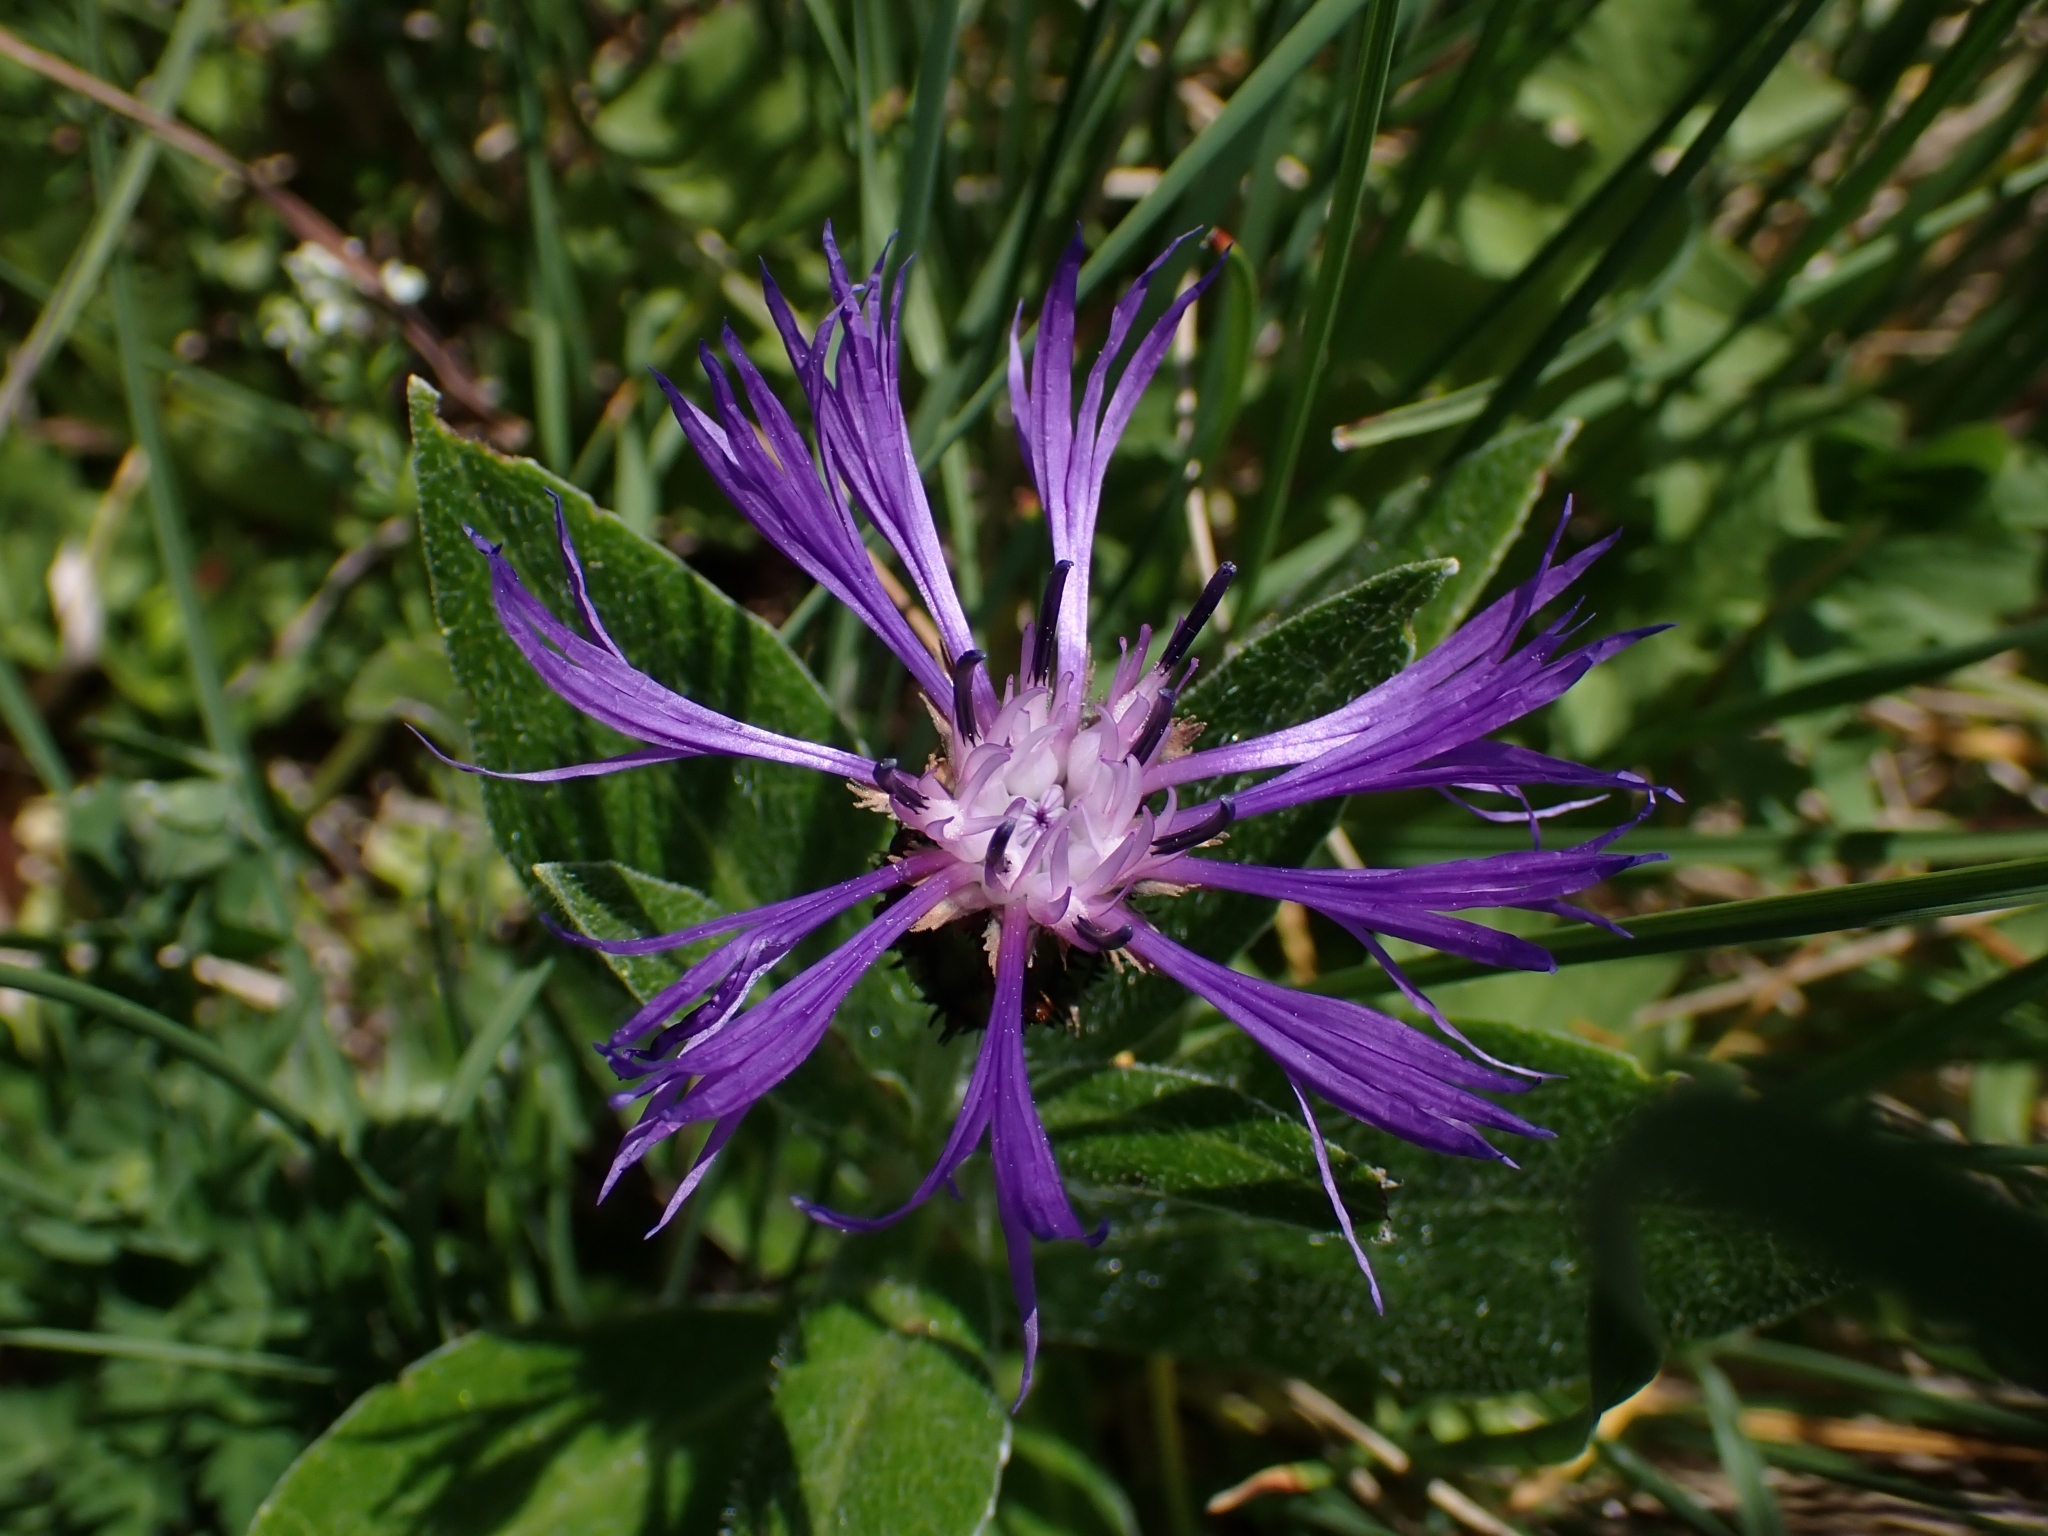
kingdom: Plantae
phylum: Tracheophyta
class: Magnoliopsida
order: Asterales
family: Asteraceae
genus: Centaurea
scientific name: Centaurea montana
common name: Perennial cornflower
